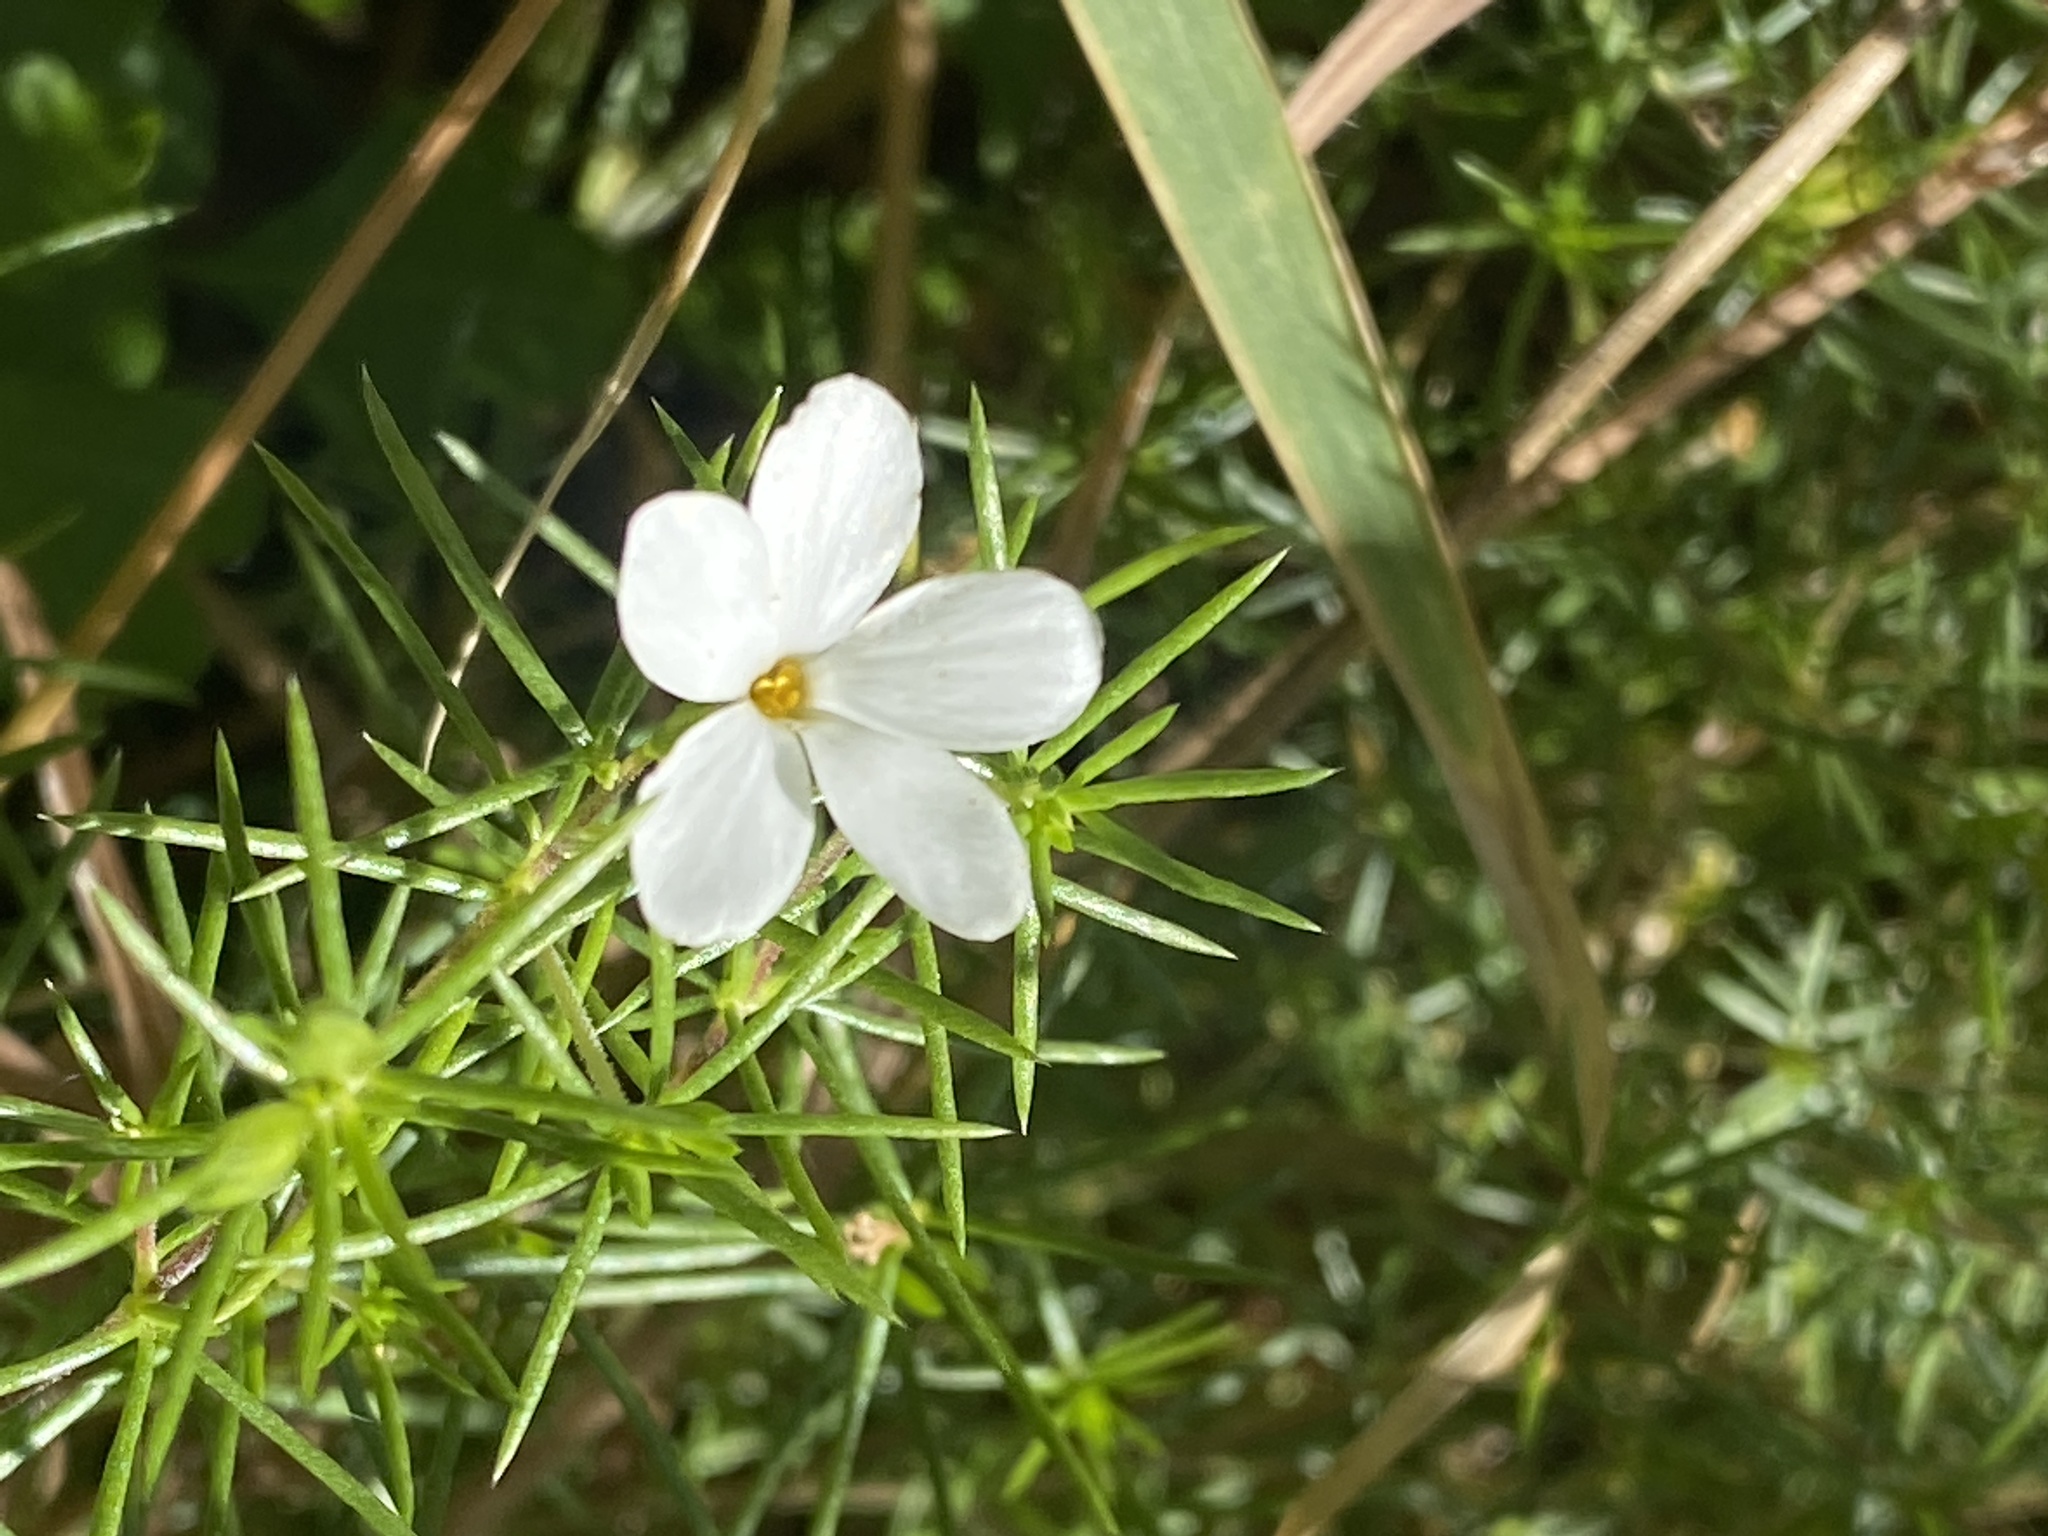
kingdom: Plantae
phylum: Tracheophyta
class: Magnoliopsida
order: Ericales
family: Polemoniaceae
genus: Leptosiphon
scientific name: Leptosiphon floribundum
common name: Many-flower linanthus
